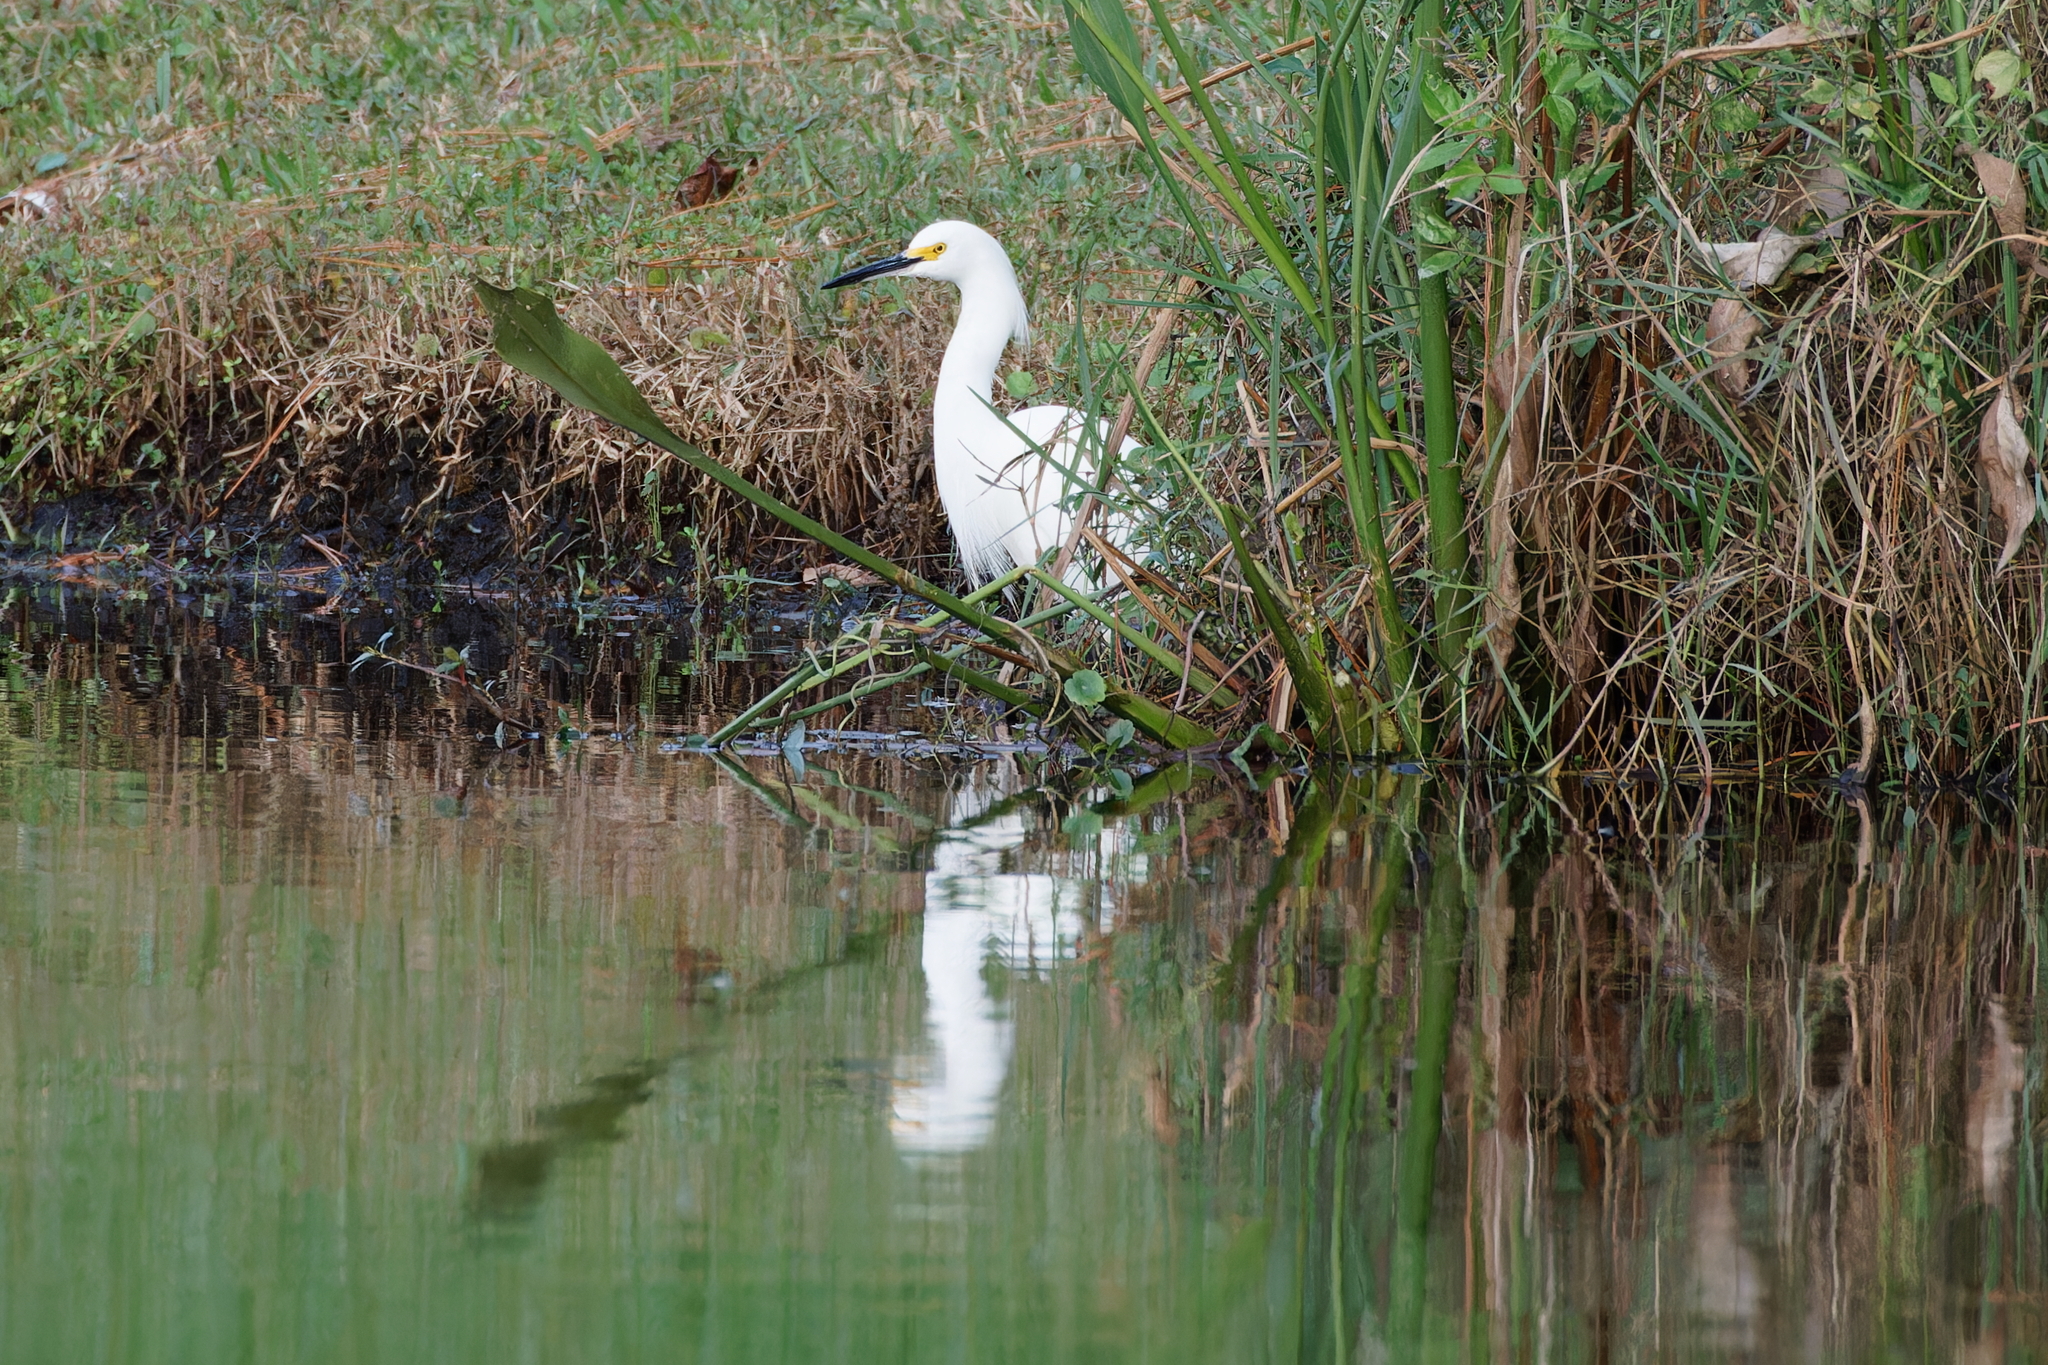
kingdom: Animalia
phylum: Chordata
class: Aves
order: Pelecaniformes
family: Ardeidae
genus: Egretta
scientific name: Egretta thula
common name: Snowy egret
